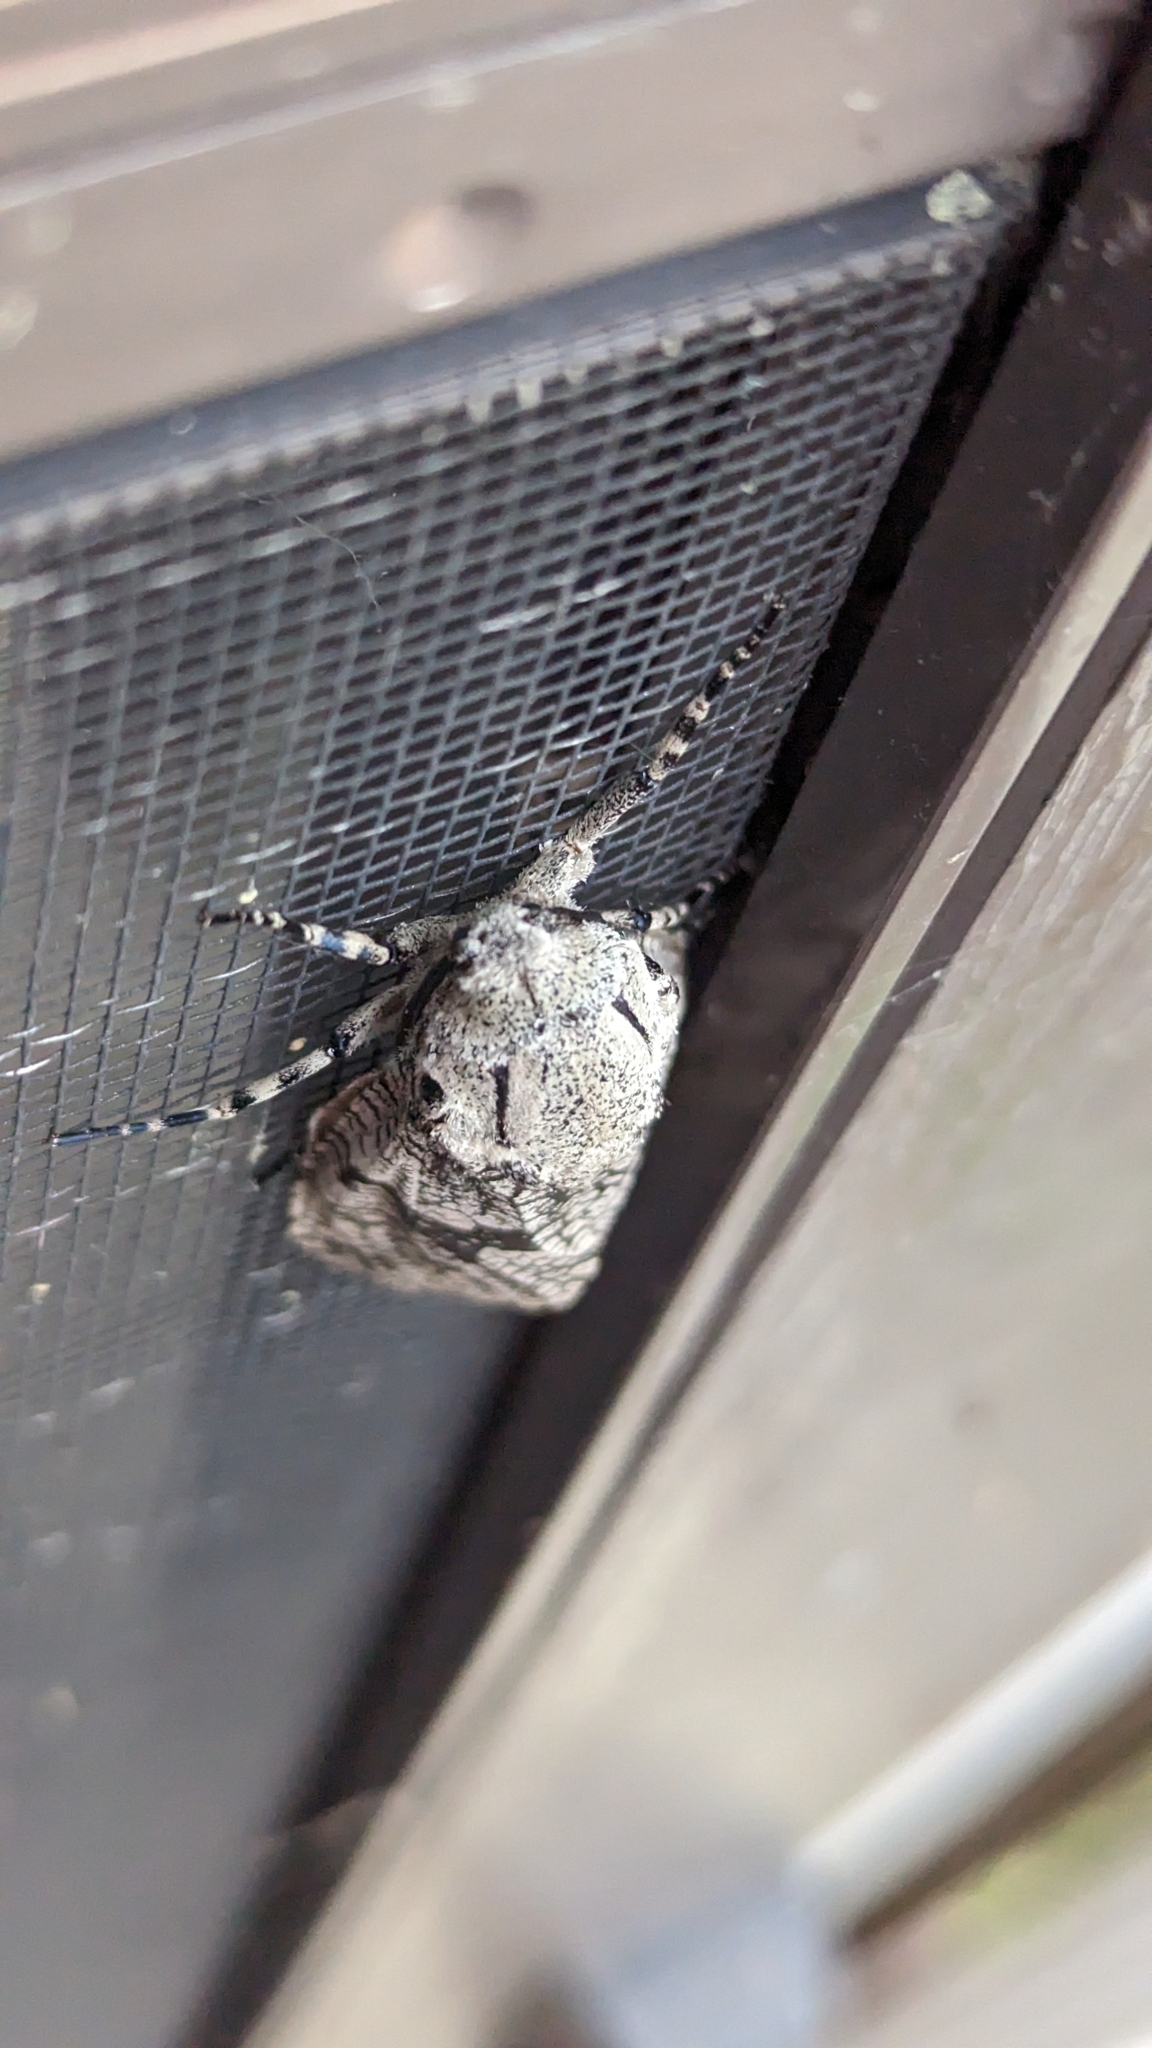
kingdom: Animalia
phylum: Arthropoda
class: Insecta
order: Lepidoptera
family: Cossidae
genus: Prionoxystus
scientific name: Prionoxystus robiniae
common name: Carpenterworm
